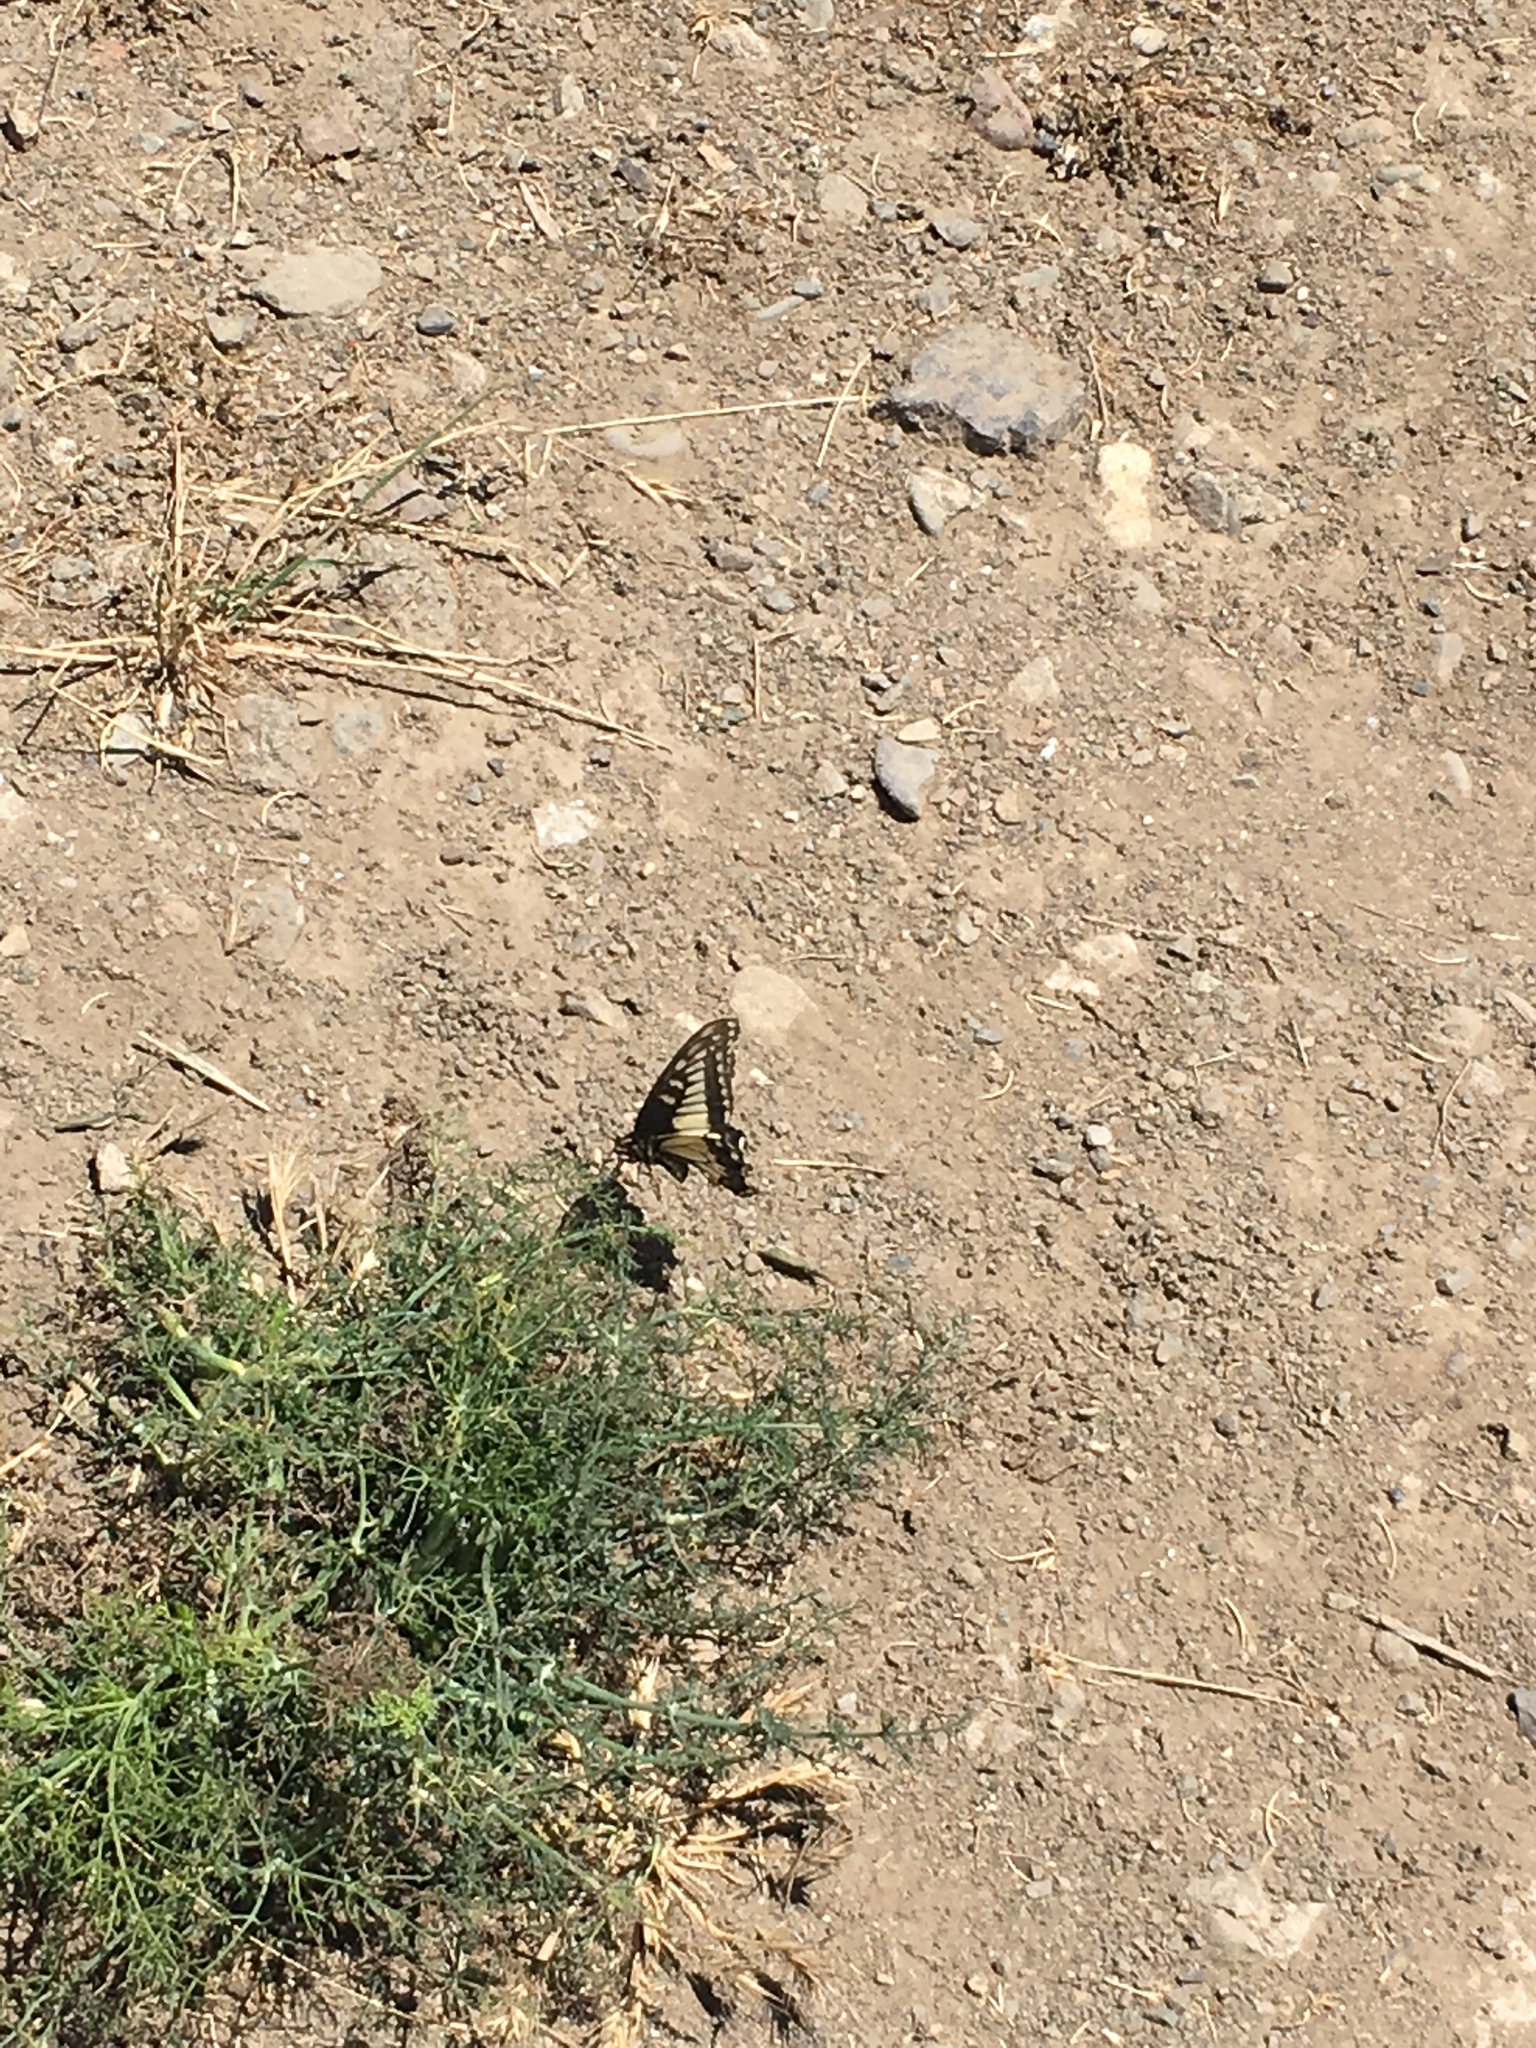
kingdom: Animalia
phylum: Arthropoda
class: Insecta
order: Lepidoptera
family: Papilionidae
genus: Papilio
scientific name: Papilio zelicaon
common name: Anise swallowtail
